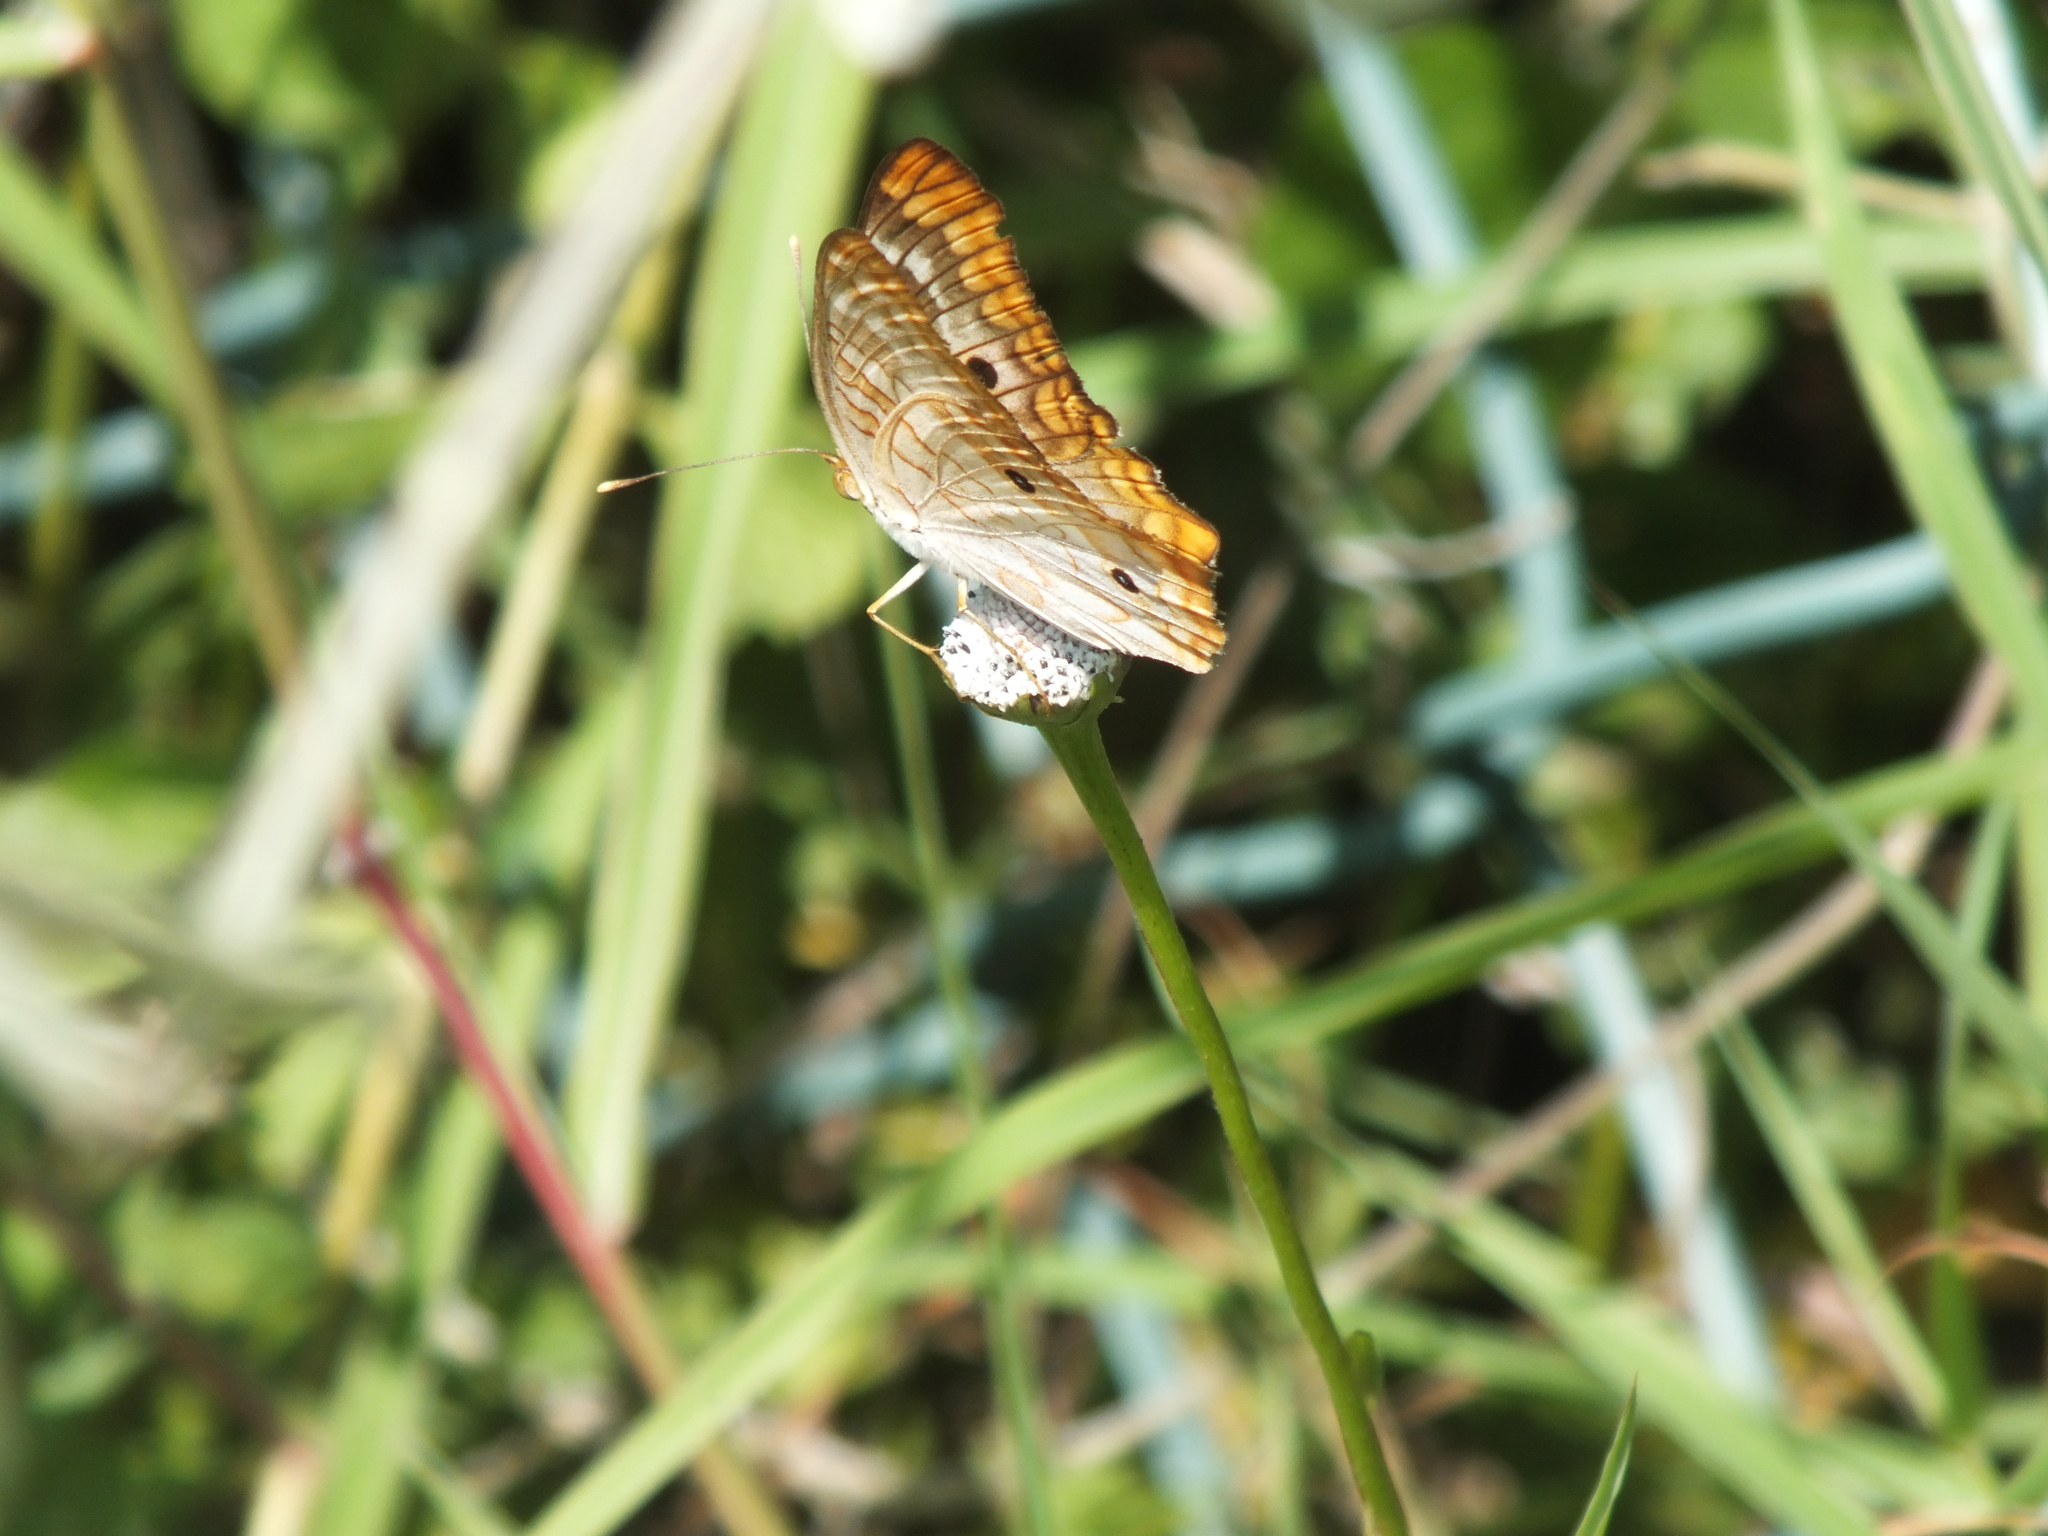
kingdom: Animalia
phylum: Arthropoda
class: Insecta
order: Lepidoptera
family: Nymphalidae
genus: Anartia
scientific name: Anartia jatrophae
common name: White peacock
